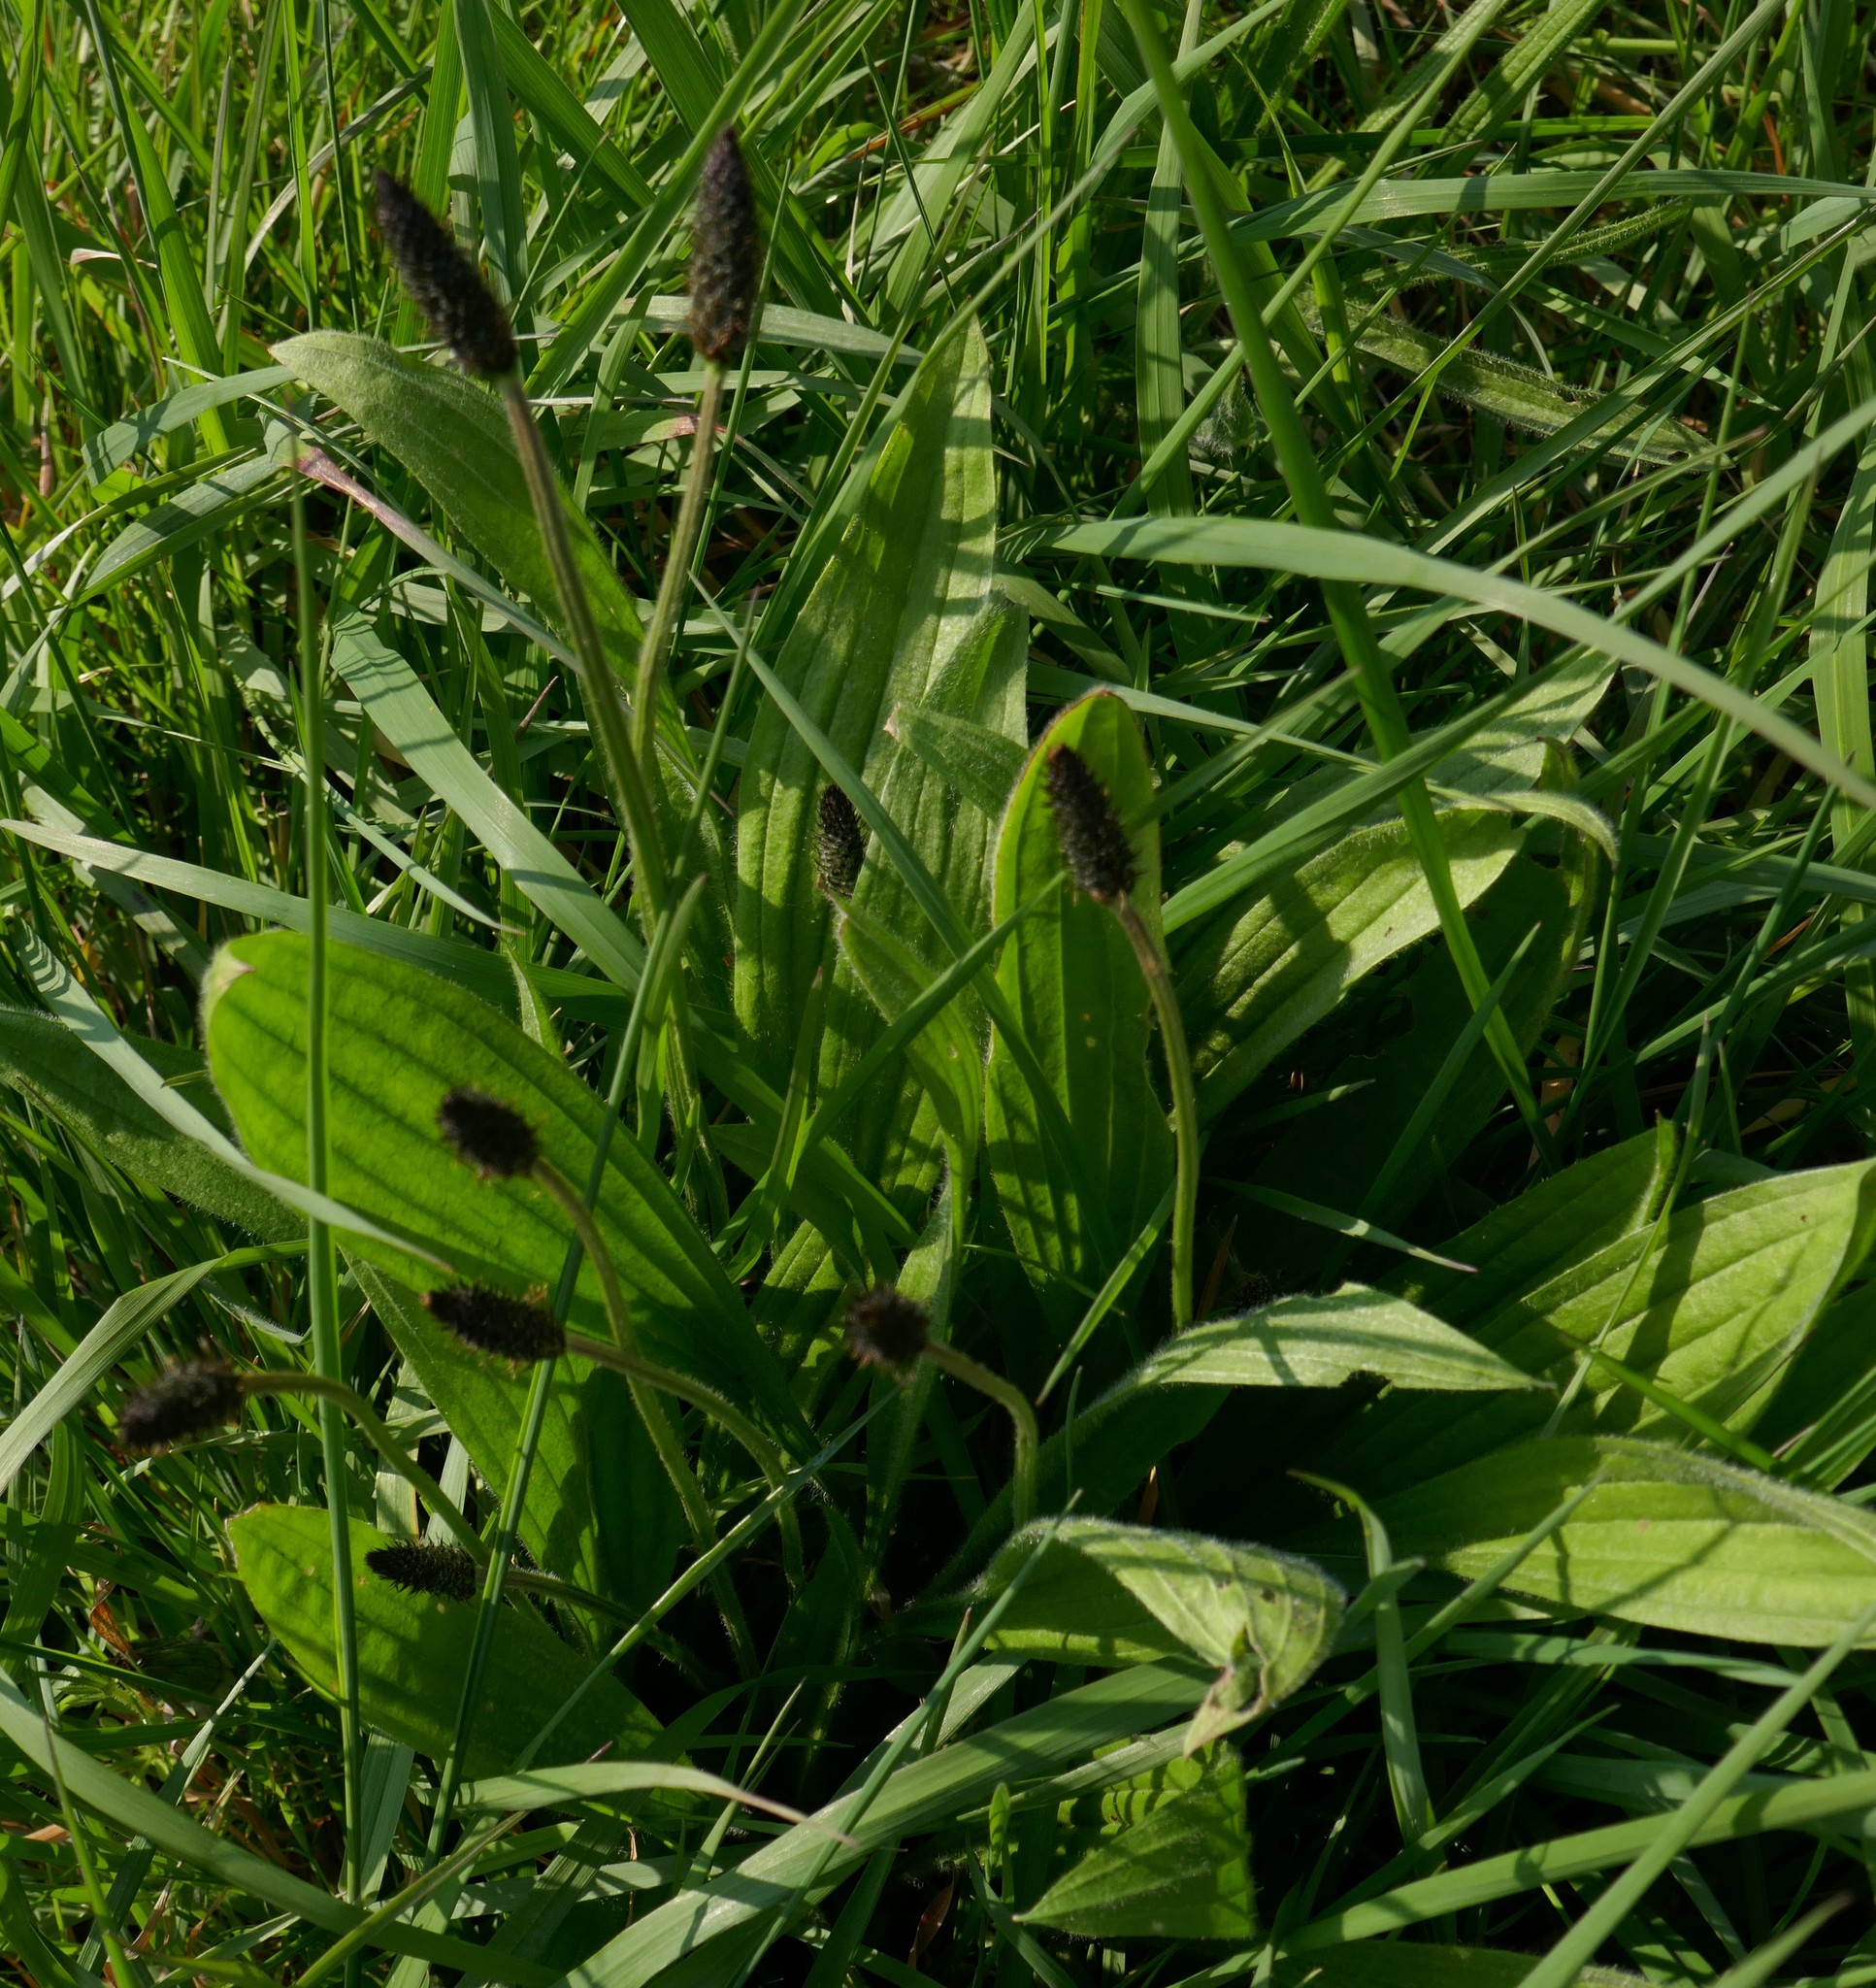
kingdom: Plantae
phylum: Tracheophyta
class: Magnoliopsida
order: Lamiales
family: Plantaginaceae
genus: Plantago
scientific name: Plantago lanceolata
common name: Ribwort plantain
